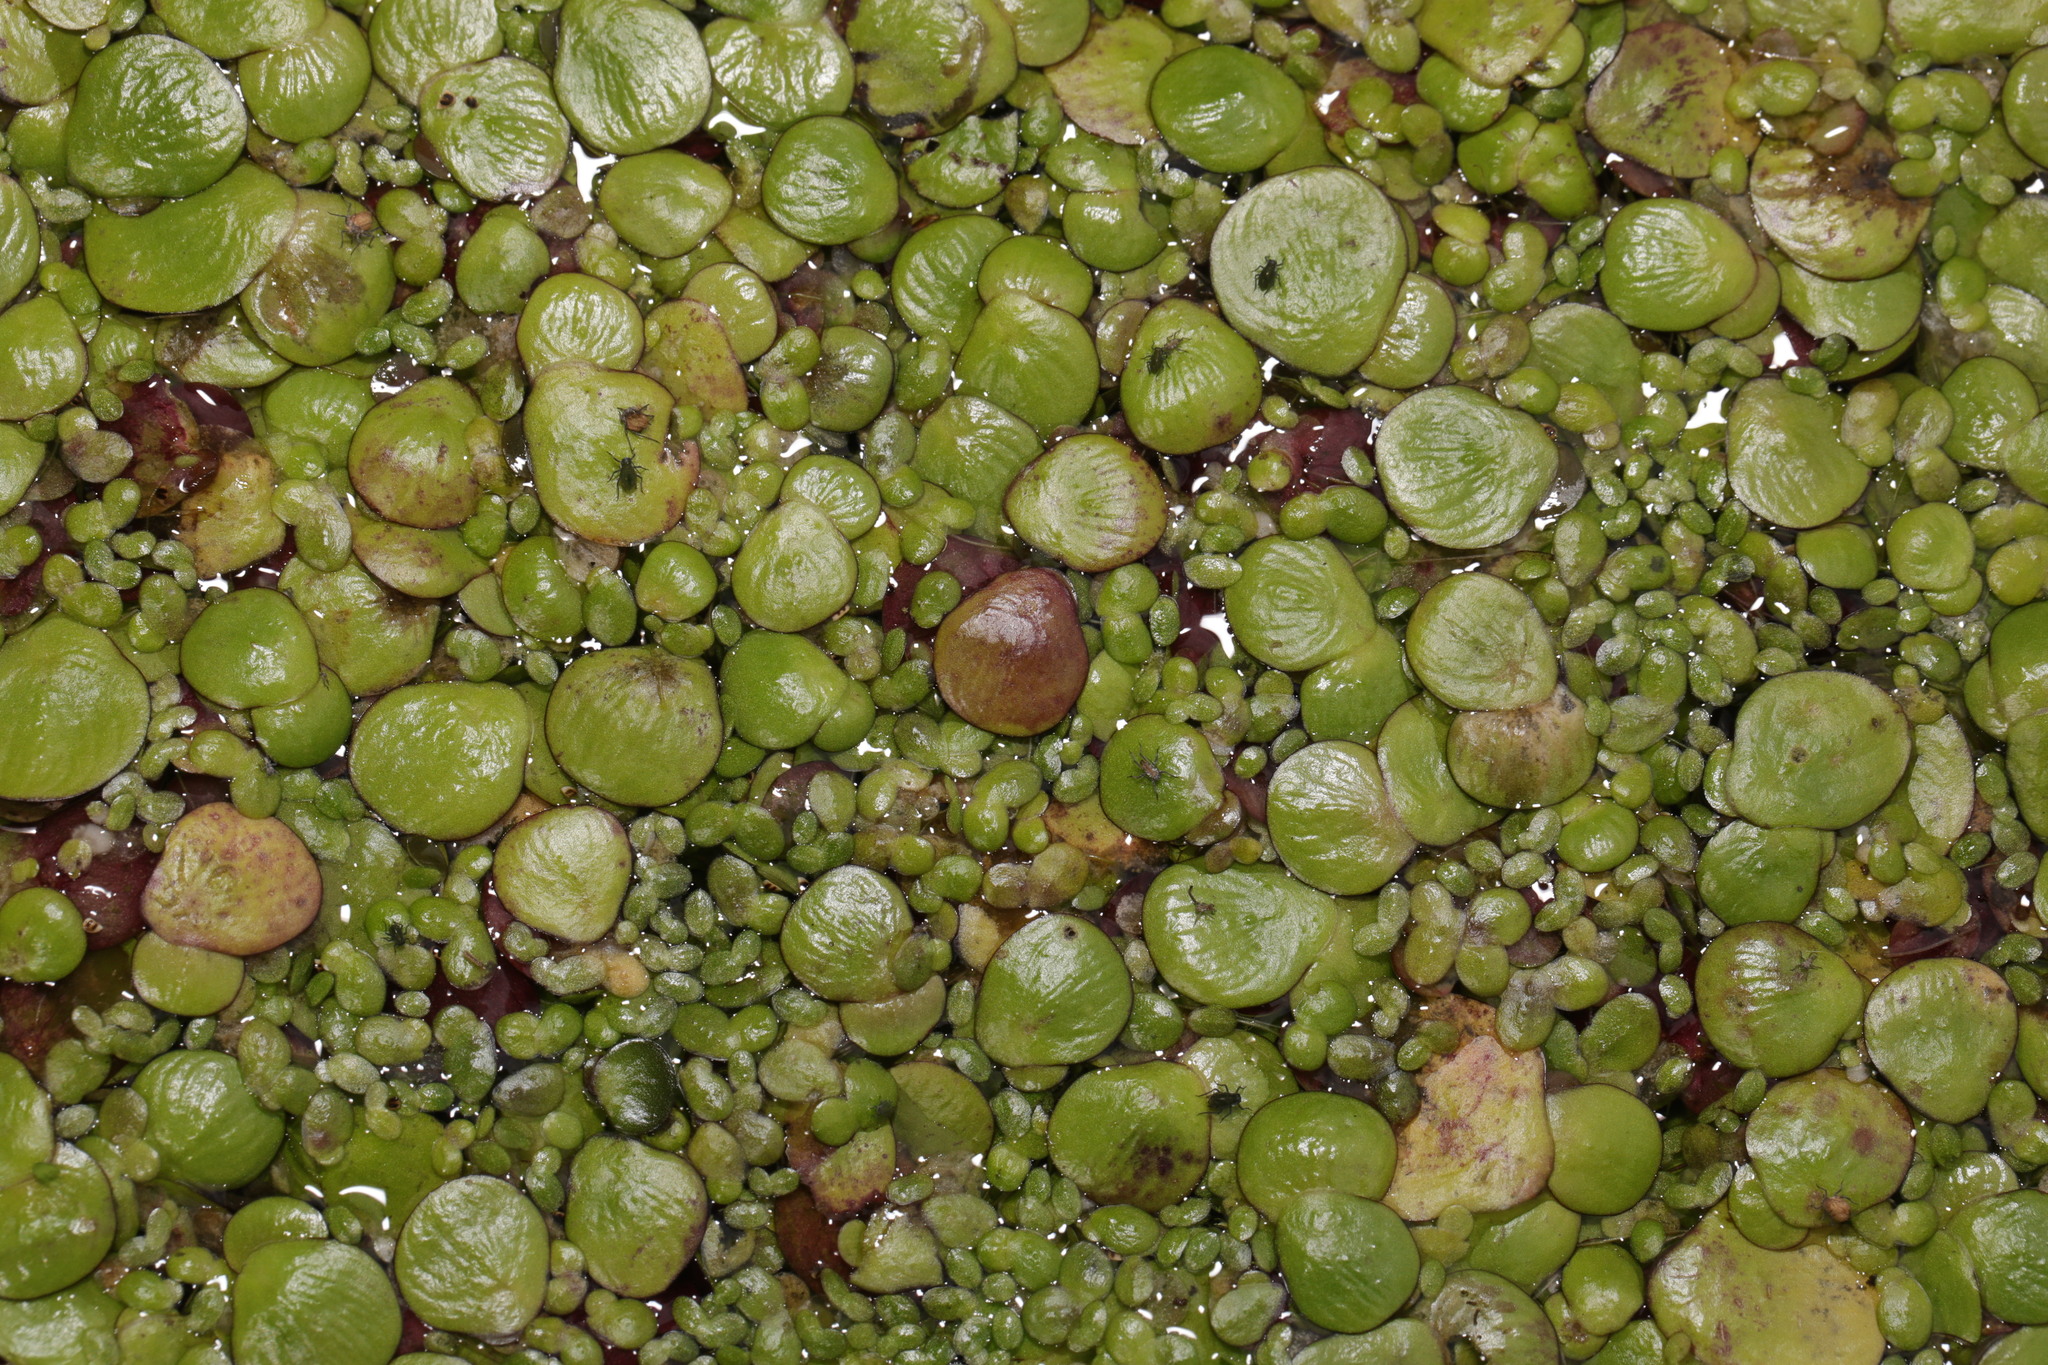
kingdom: Plantae
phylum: Tracheophyta
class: Liliopsida
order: Alismatales
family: Araceae
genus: Spirodela
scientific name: Spirodela polyrhiza
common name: Great duckweed
